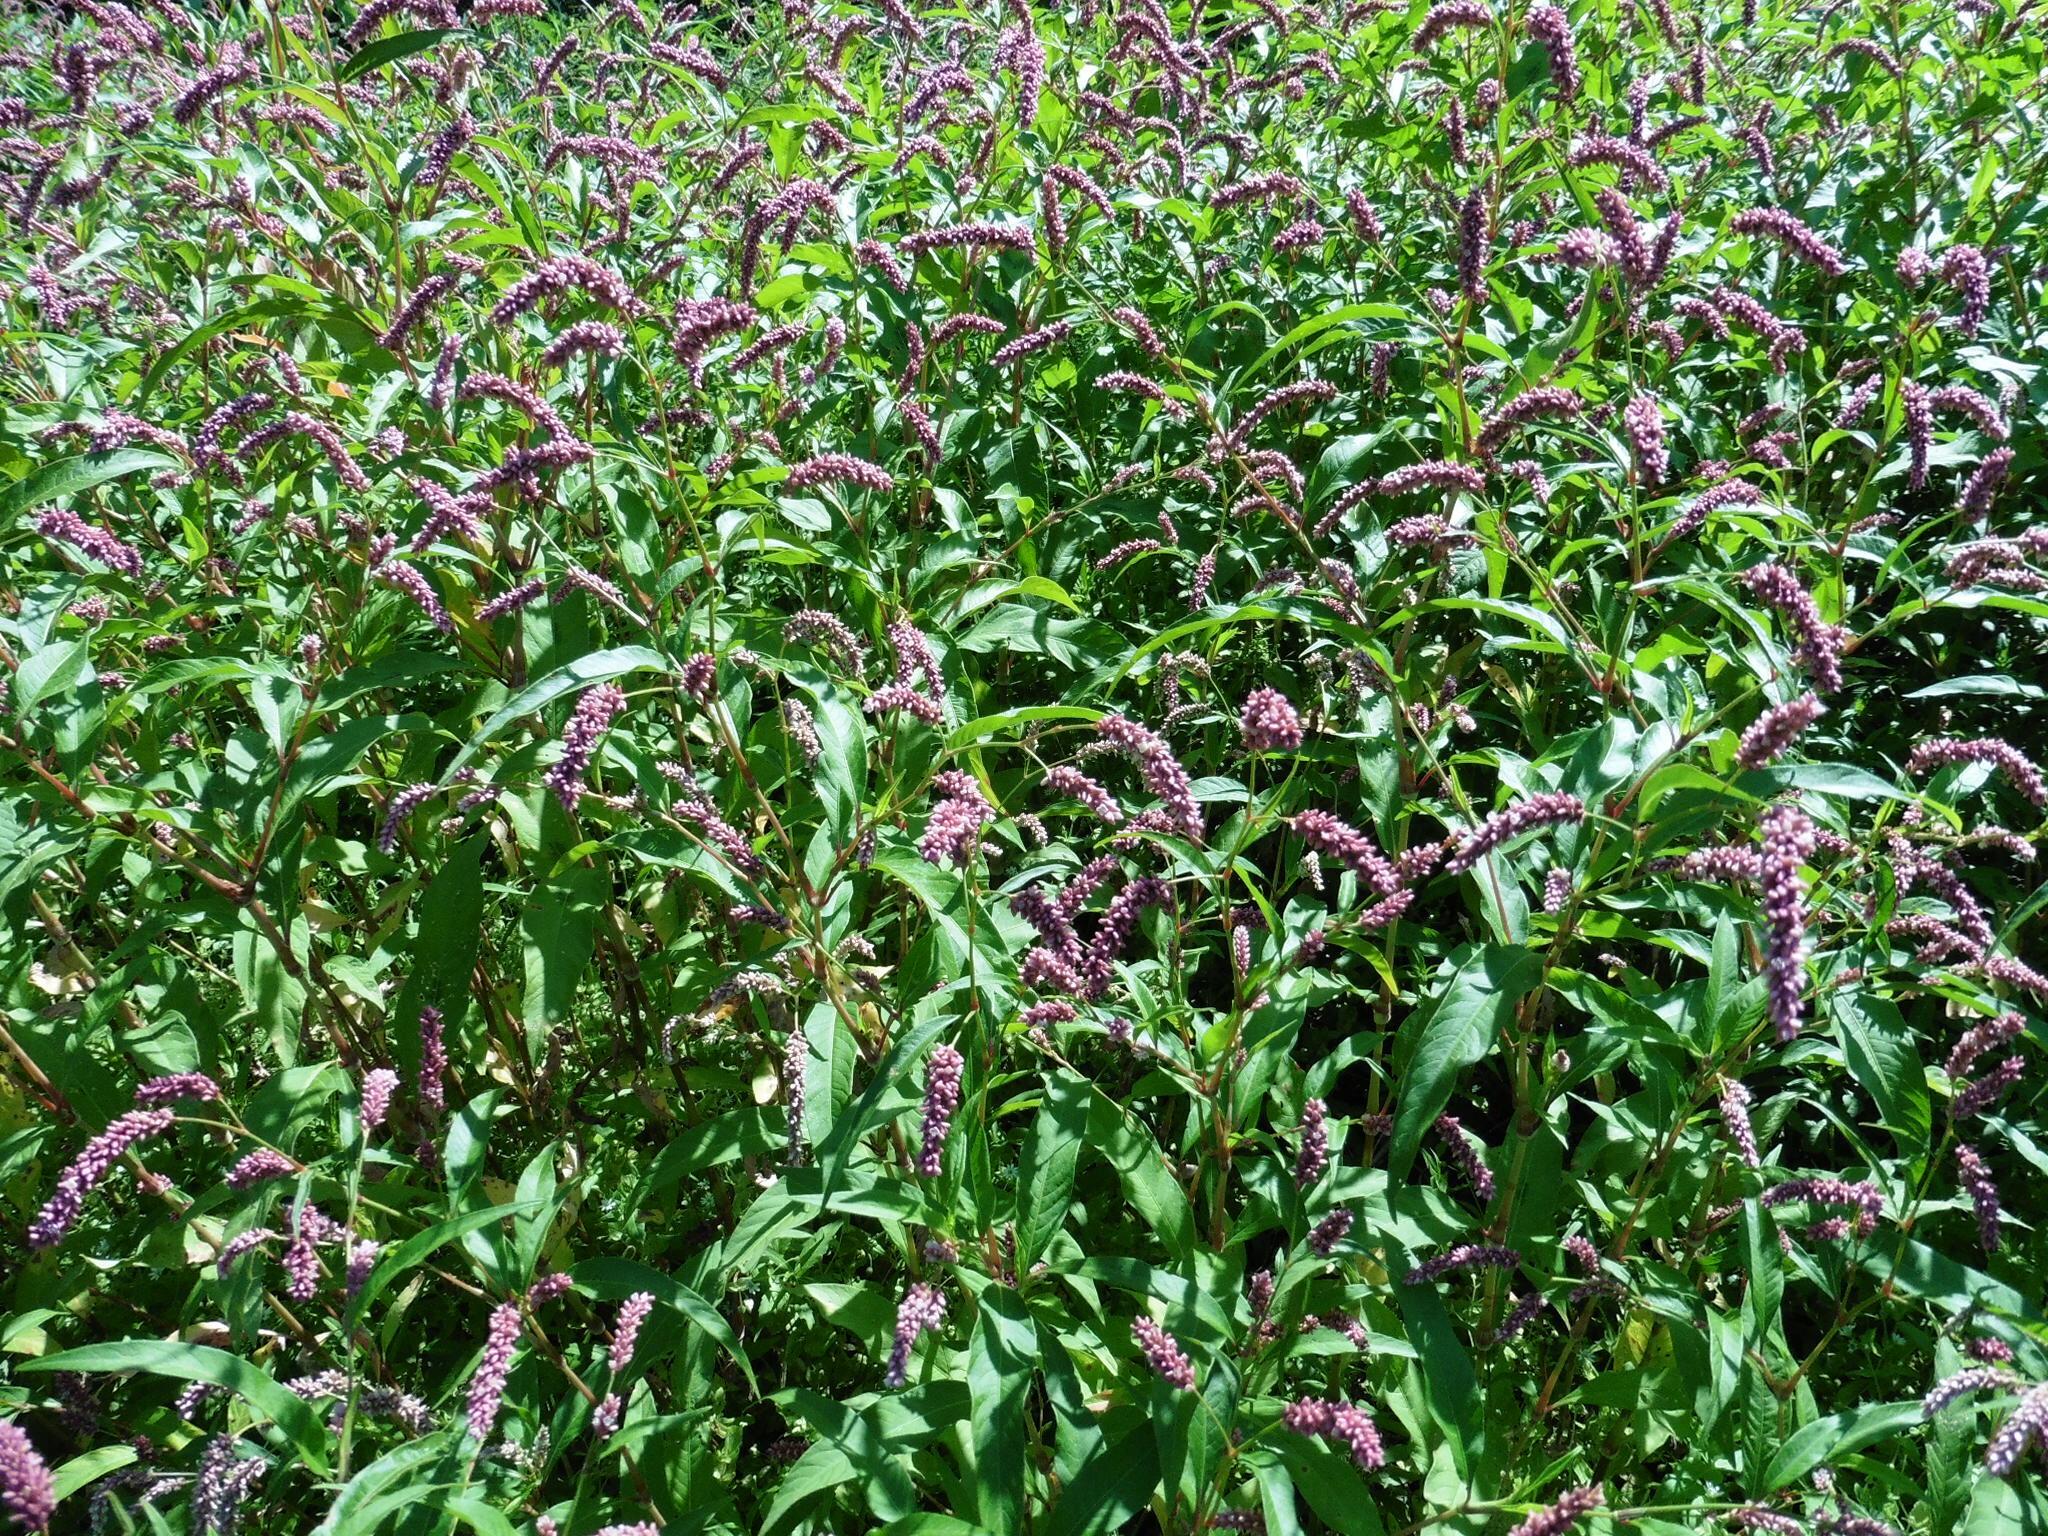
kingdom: Plantae
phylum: Tracheophyta
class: Magnoliopsida
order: Caryophyllales
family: Polygonaceae
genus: Persicaria
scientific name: Persicaria lapathifolia
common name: Curlytop knotweed
